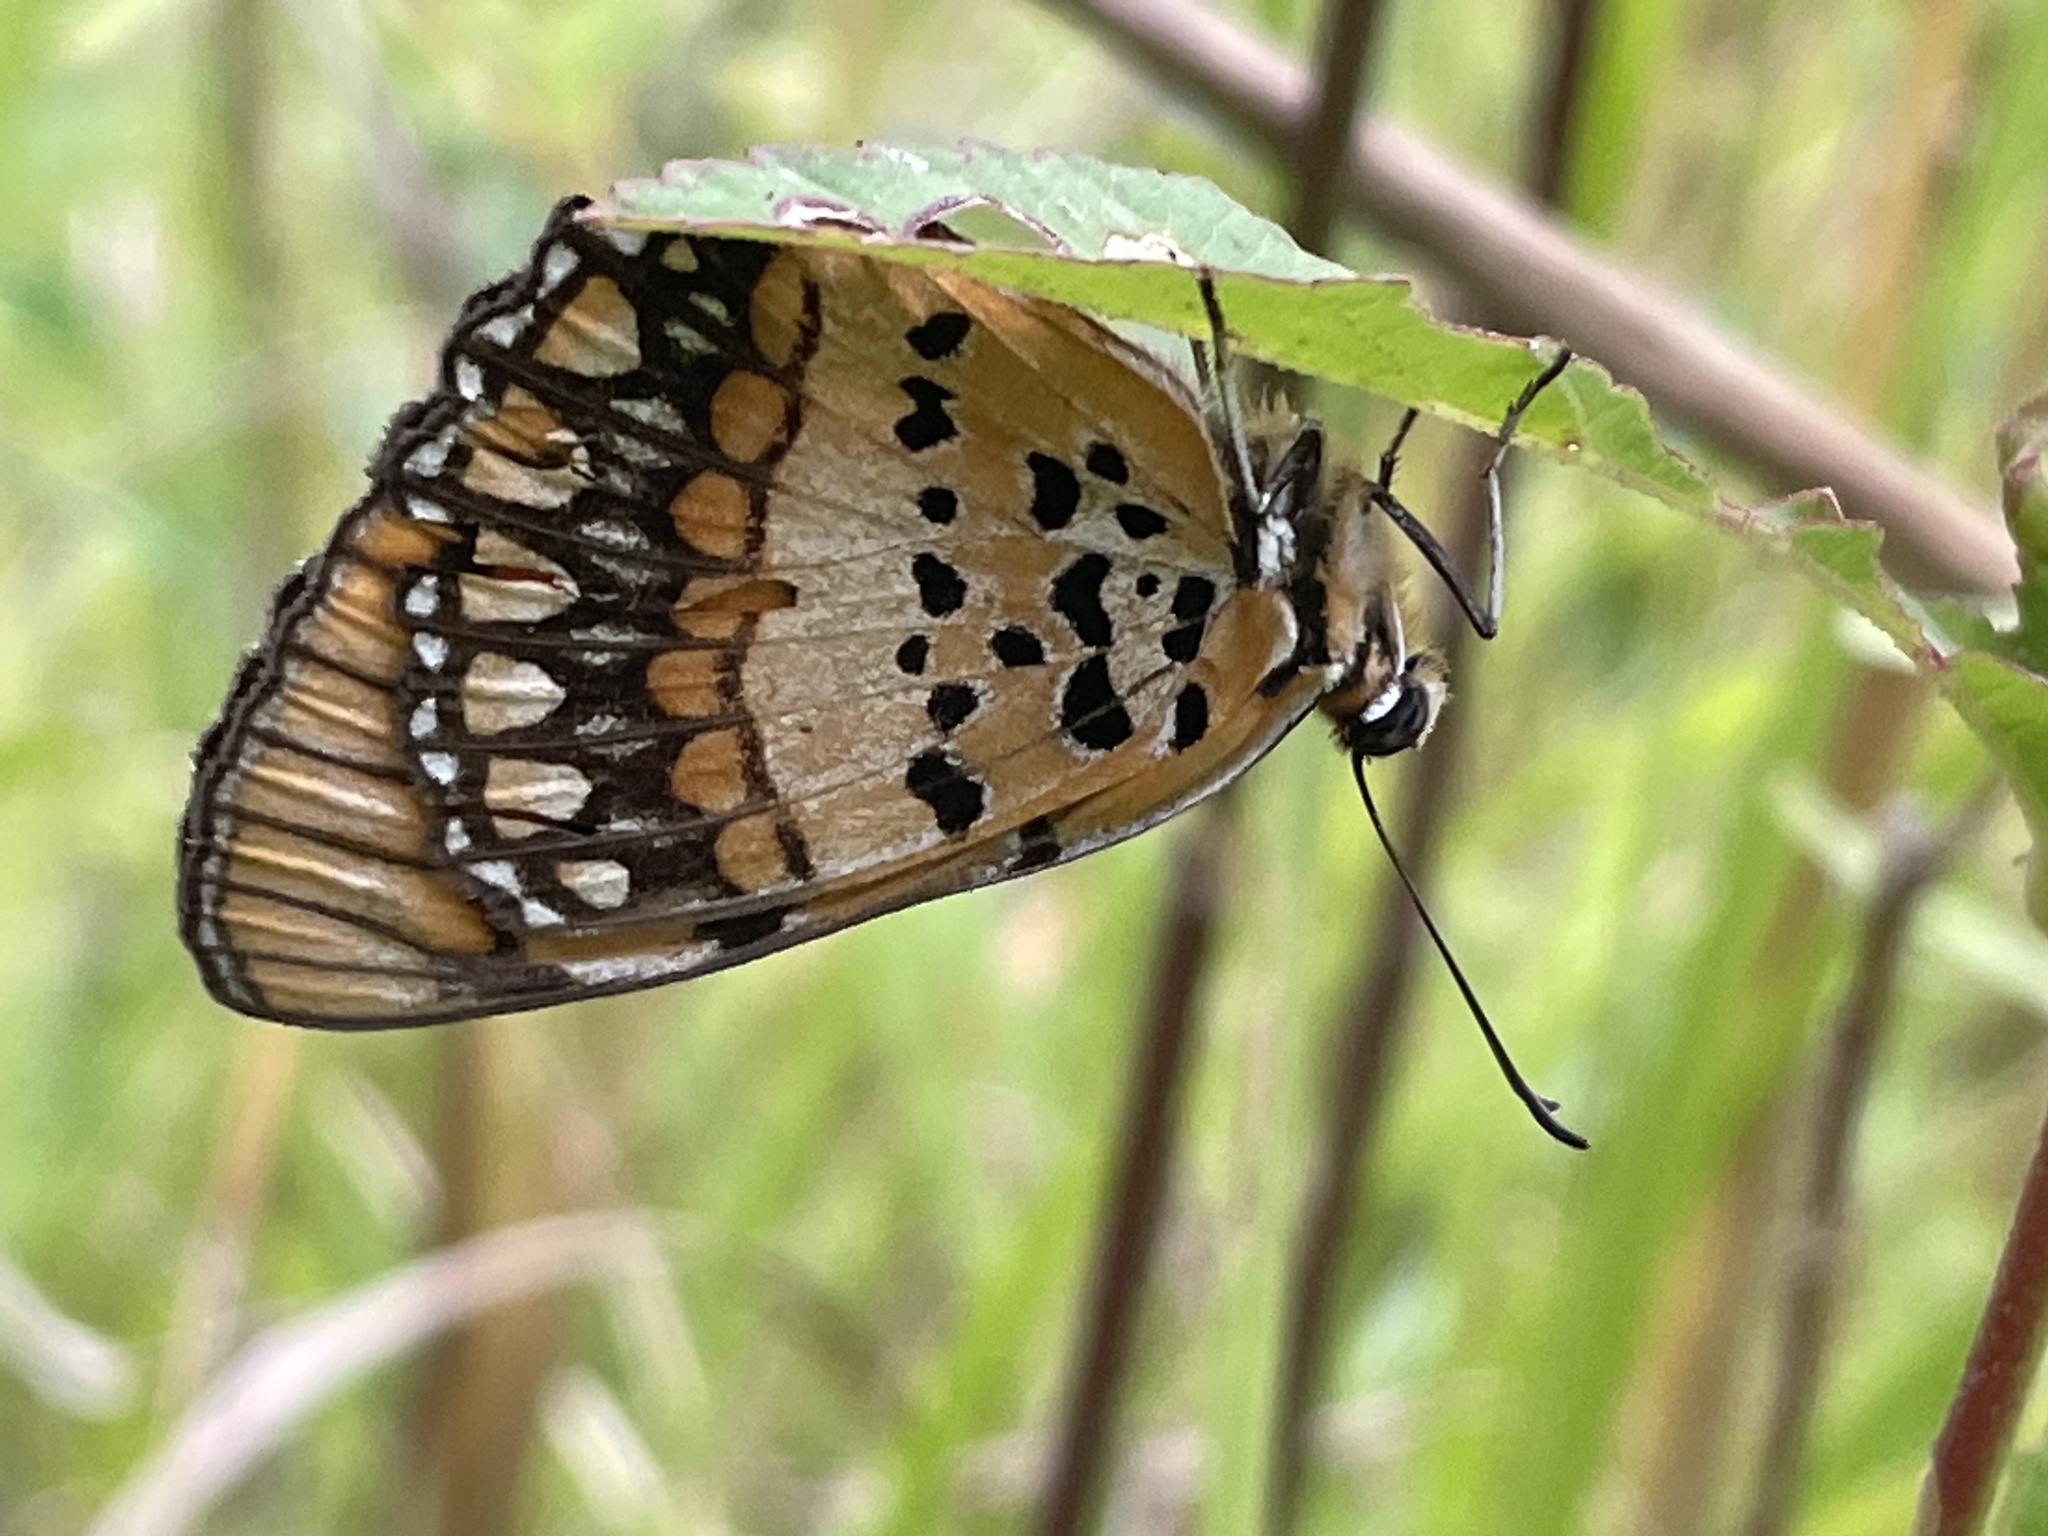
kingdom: Animalia
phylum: Arthropoda
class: Insecta
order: Lepidoptera
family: Nymphalidae
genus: Byblia
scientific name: Byblia acheloia
